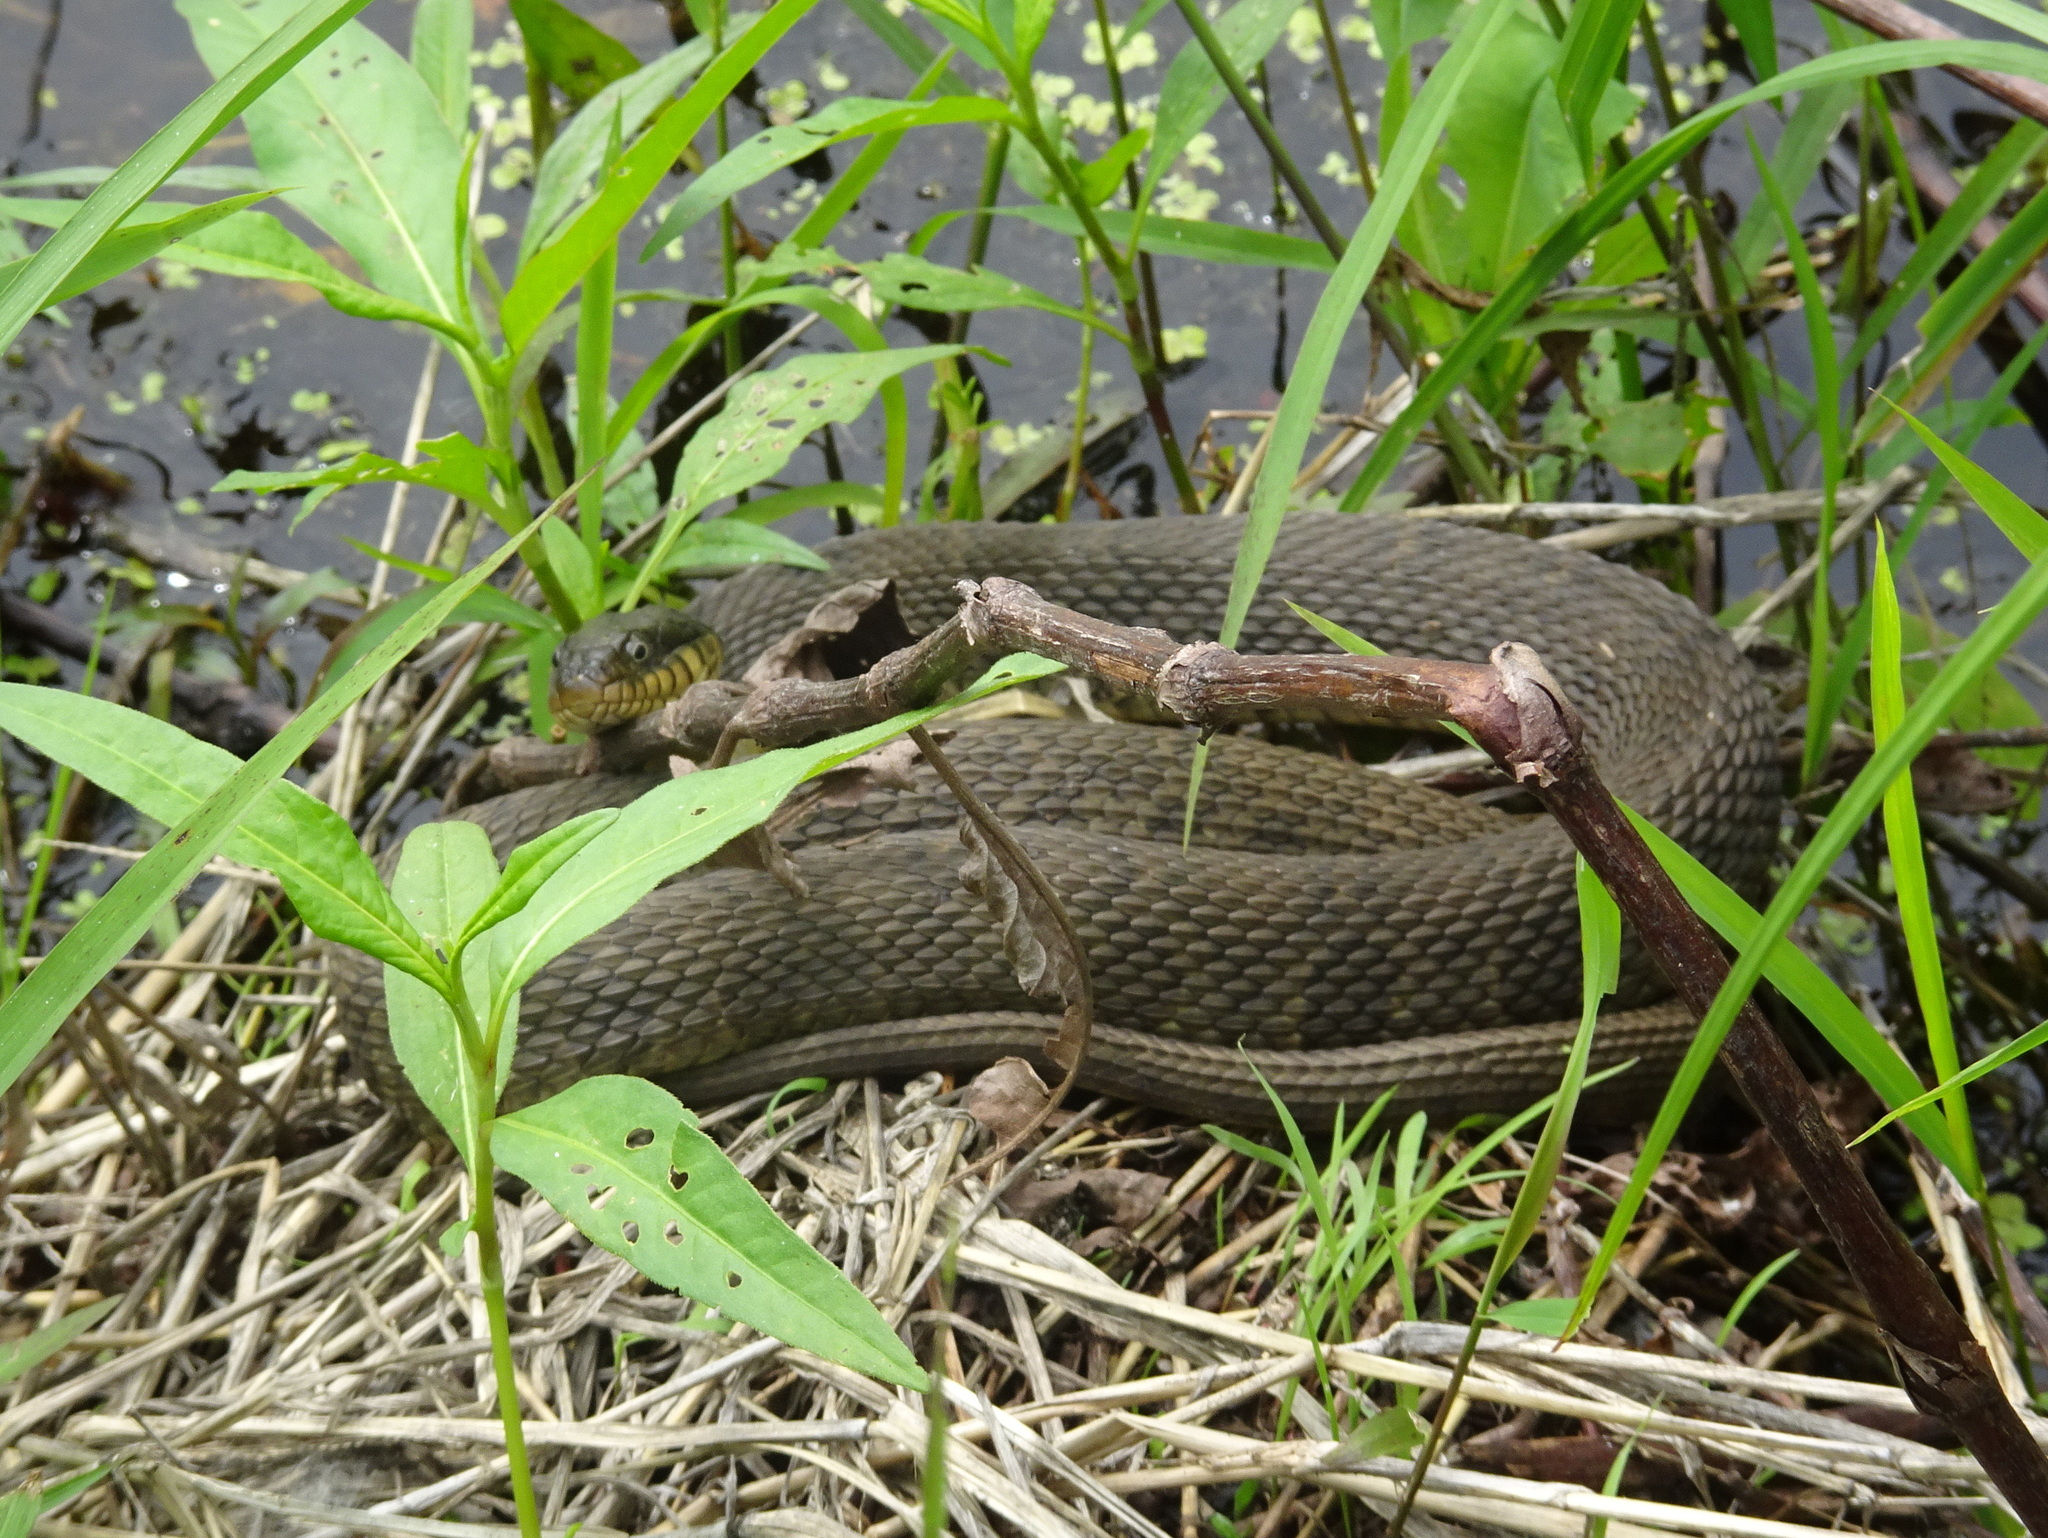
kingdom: Animalia
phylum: Chordata
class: Squamata
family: Colubridae
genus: Nerodia
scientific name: Nerodia erythrogaster
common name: Plainbelly water snake
